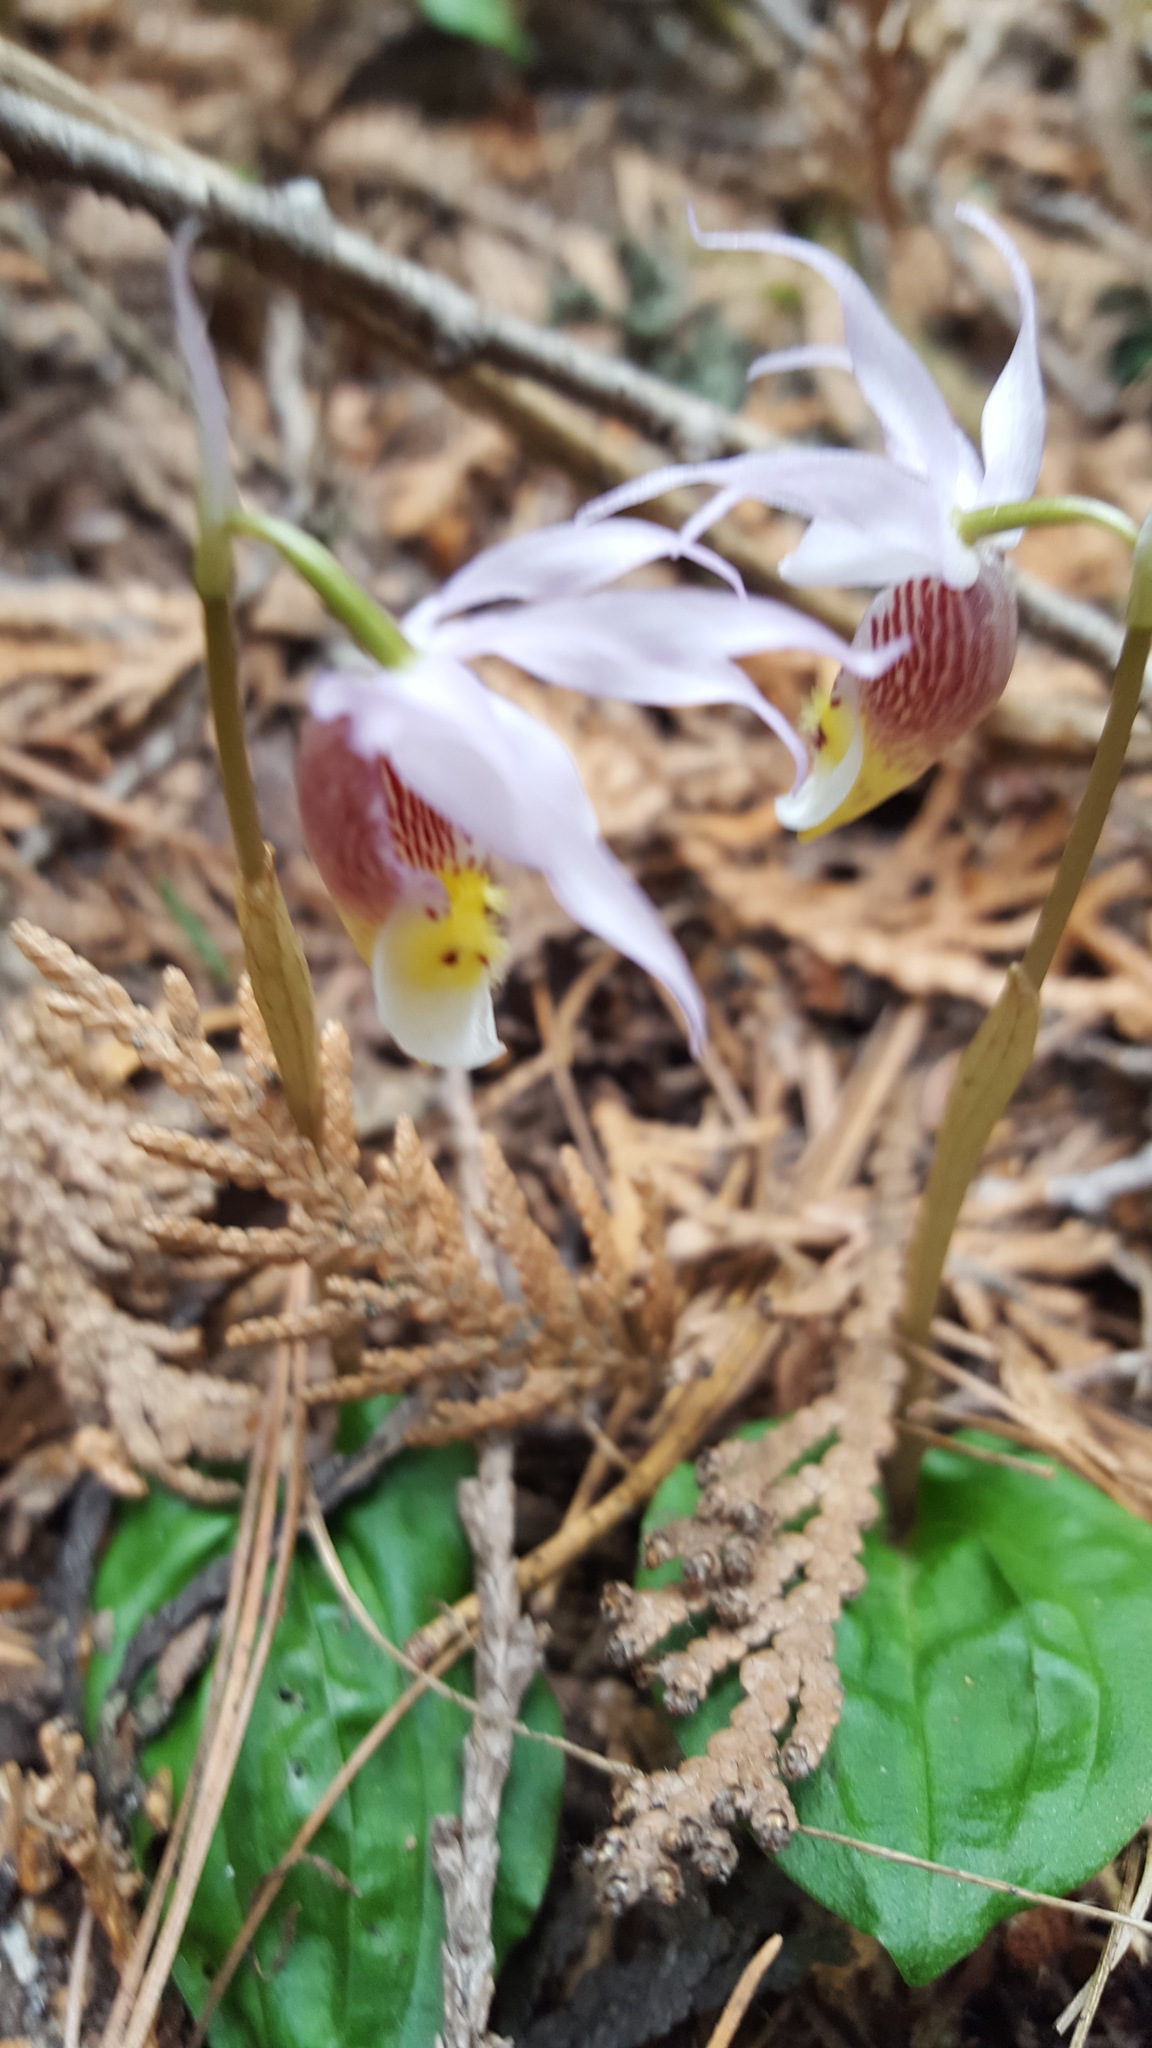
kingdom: Plantae
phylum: Tracheophyta
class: Liliopsida
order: Asparagales
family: Orchidaceae
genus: Calypso
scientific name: Calypso bulbosa
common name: Calypso
